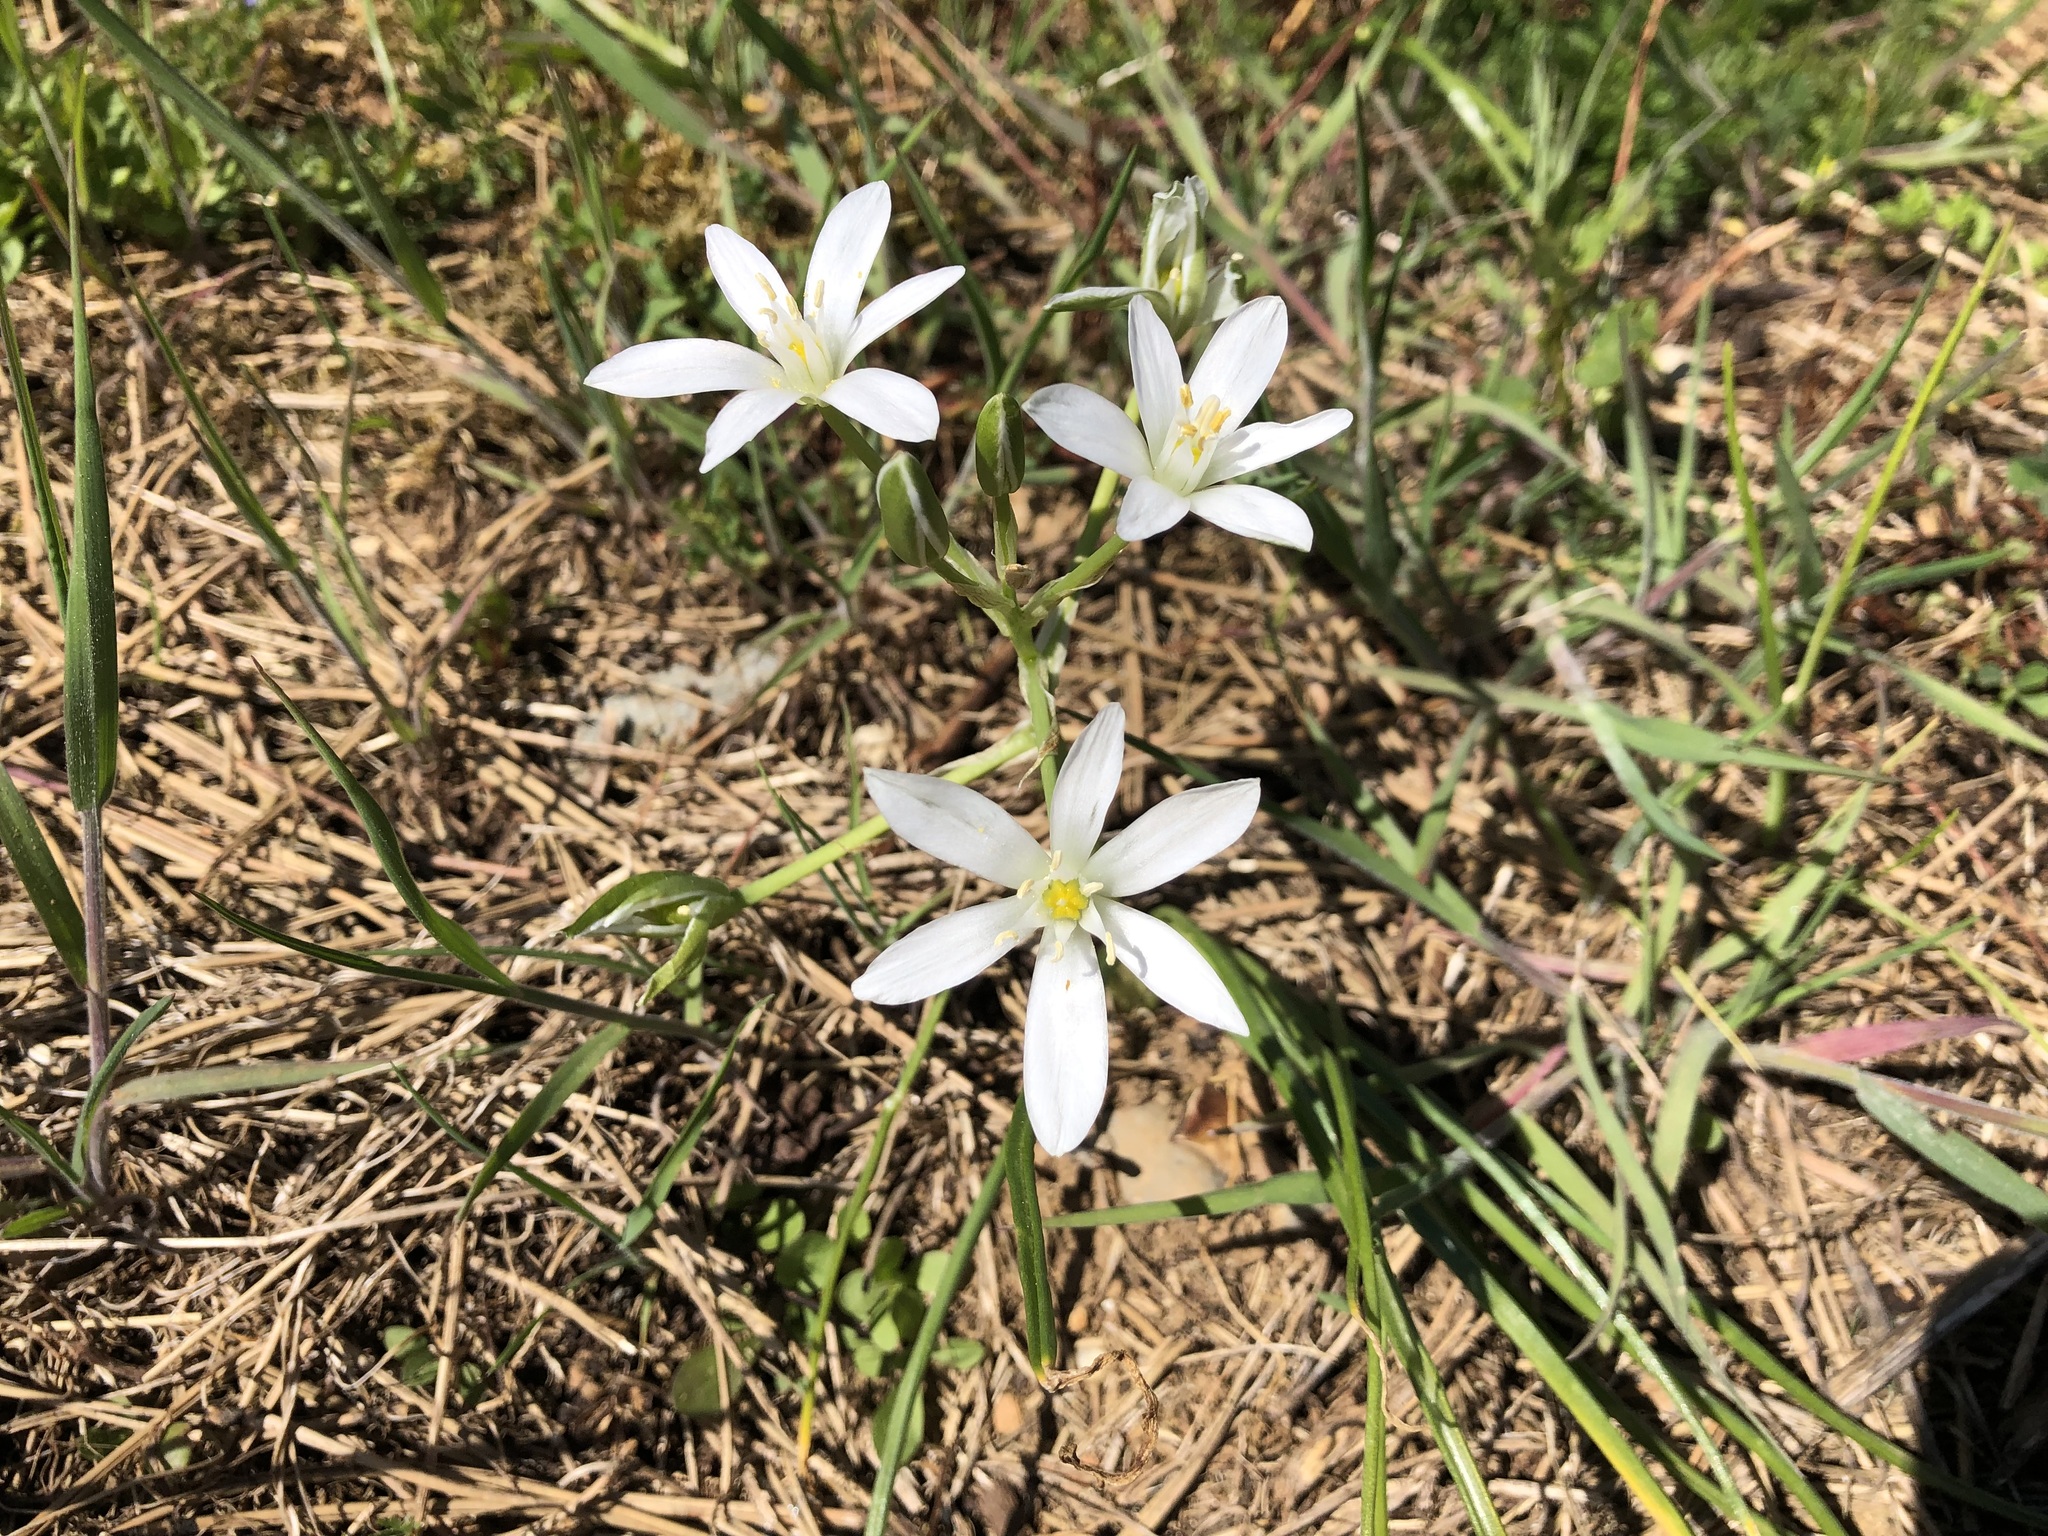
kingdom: Plantae
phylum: Tracheophyta
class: Liliopsida
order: Asparagales
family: Asparagaceae
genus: Ornithogalum
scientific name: Ornithogalum umbellatum
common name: Garden star-of-bethlehem
